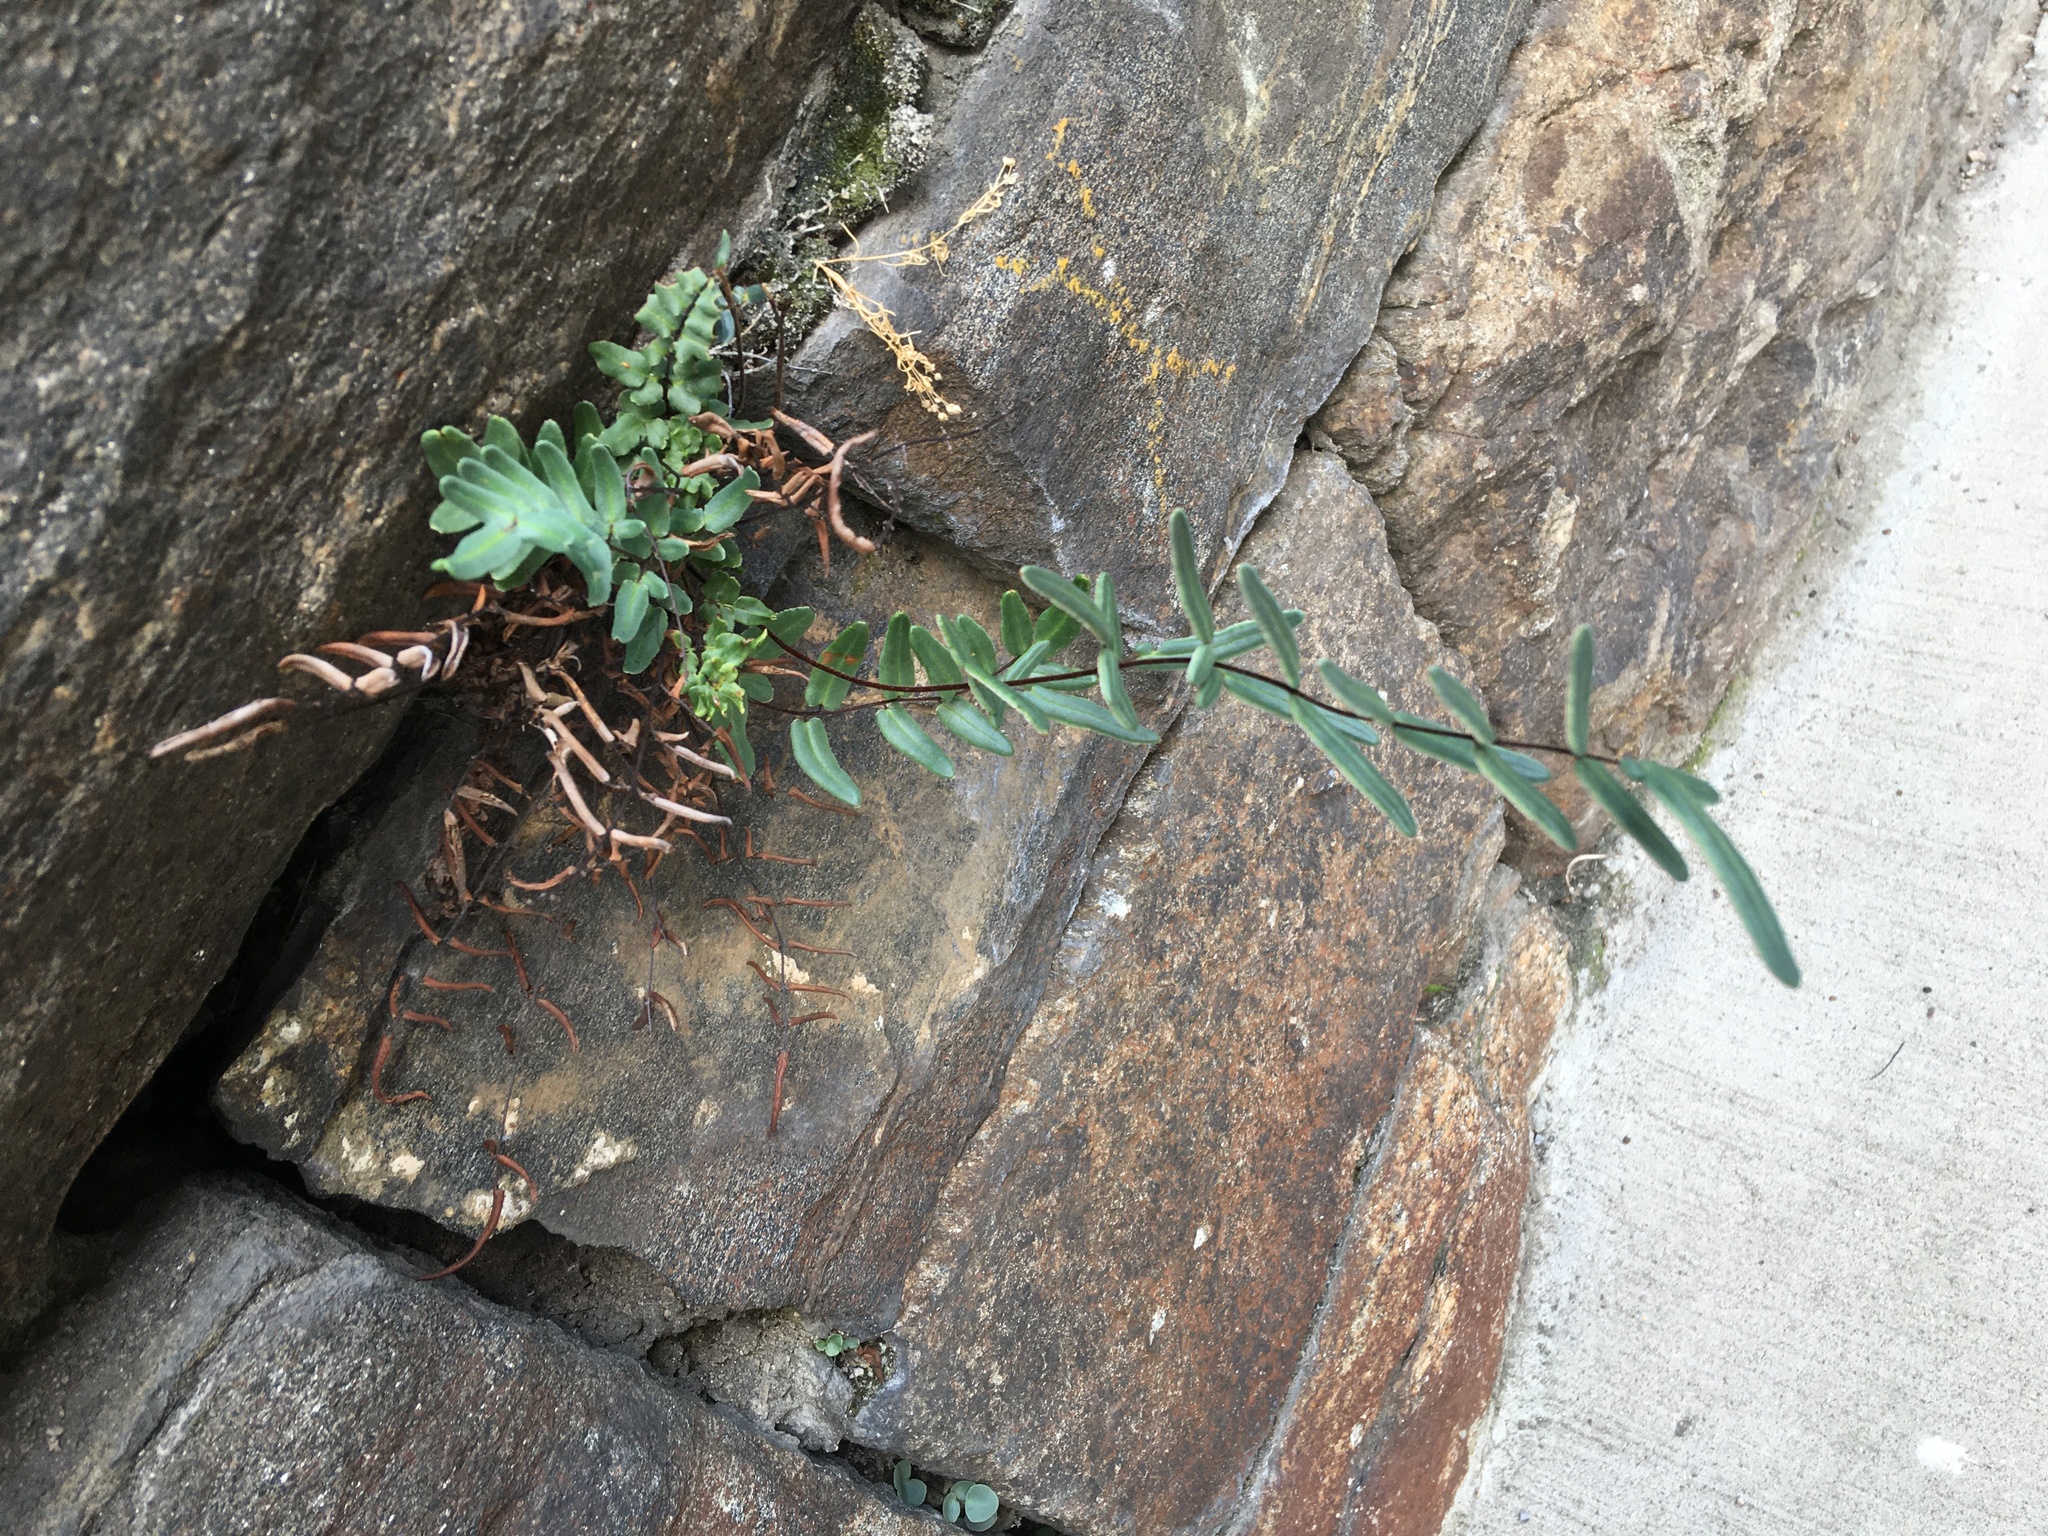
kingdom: Plantae
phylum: Tracheophyta
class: Polypodiopsida
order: Polypodiales
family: Pteridaceae
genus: Pellaea
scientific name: Pellaea atropurpurea
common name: Hairy cliffbrake
